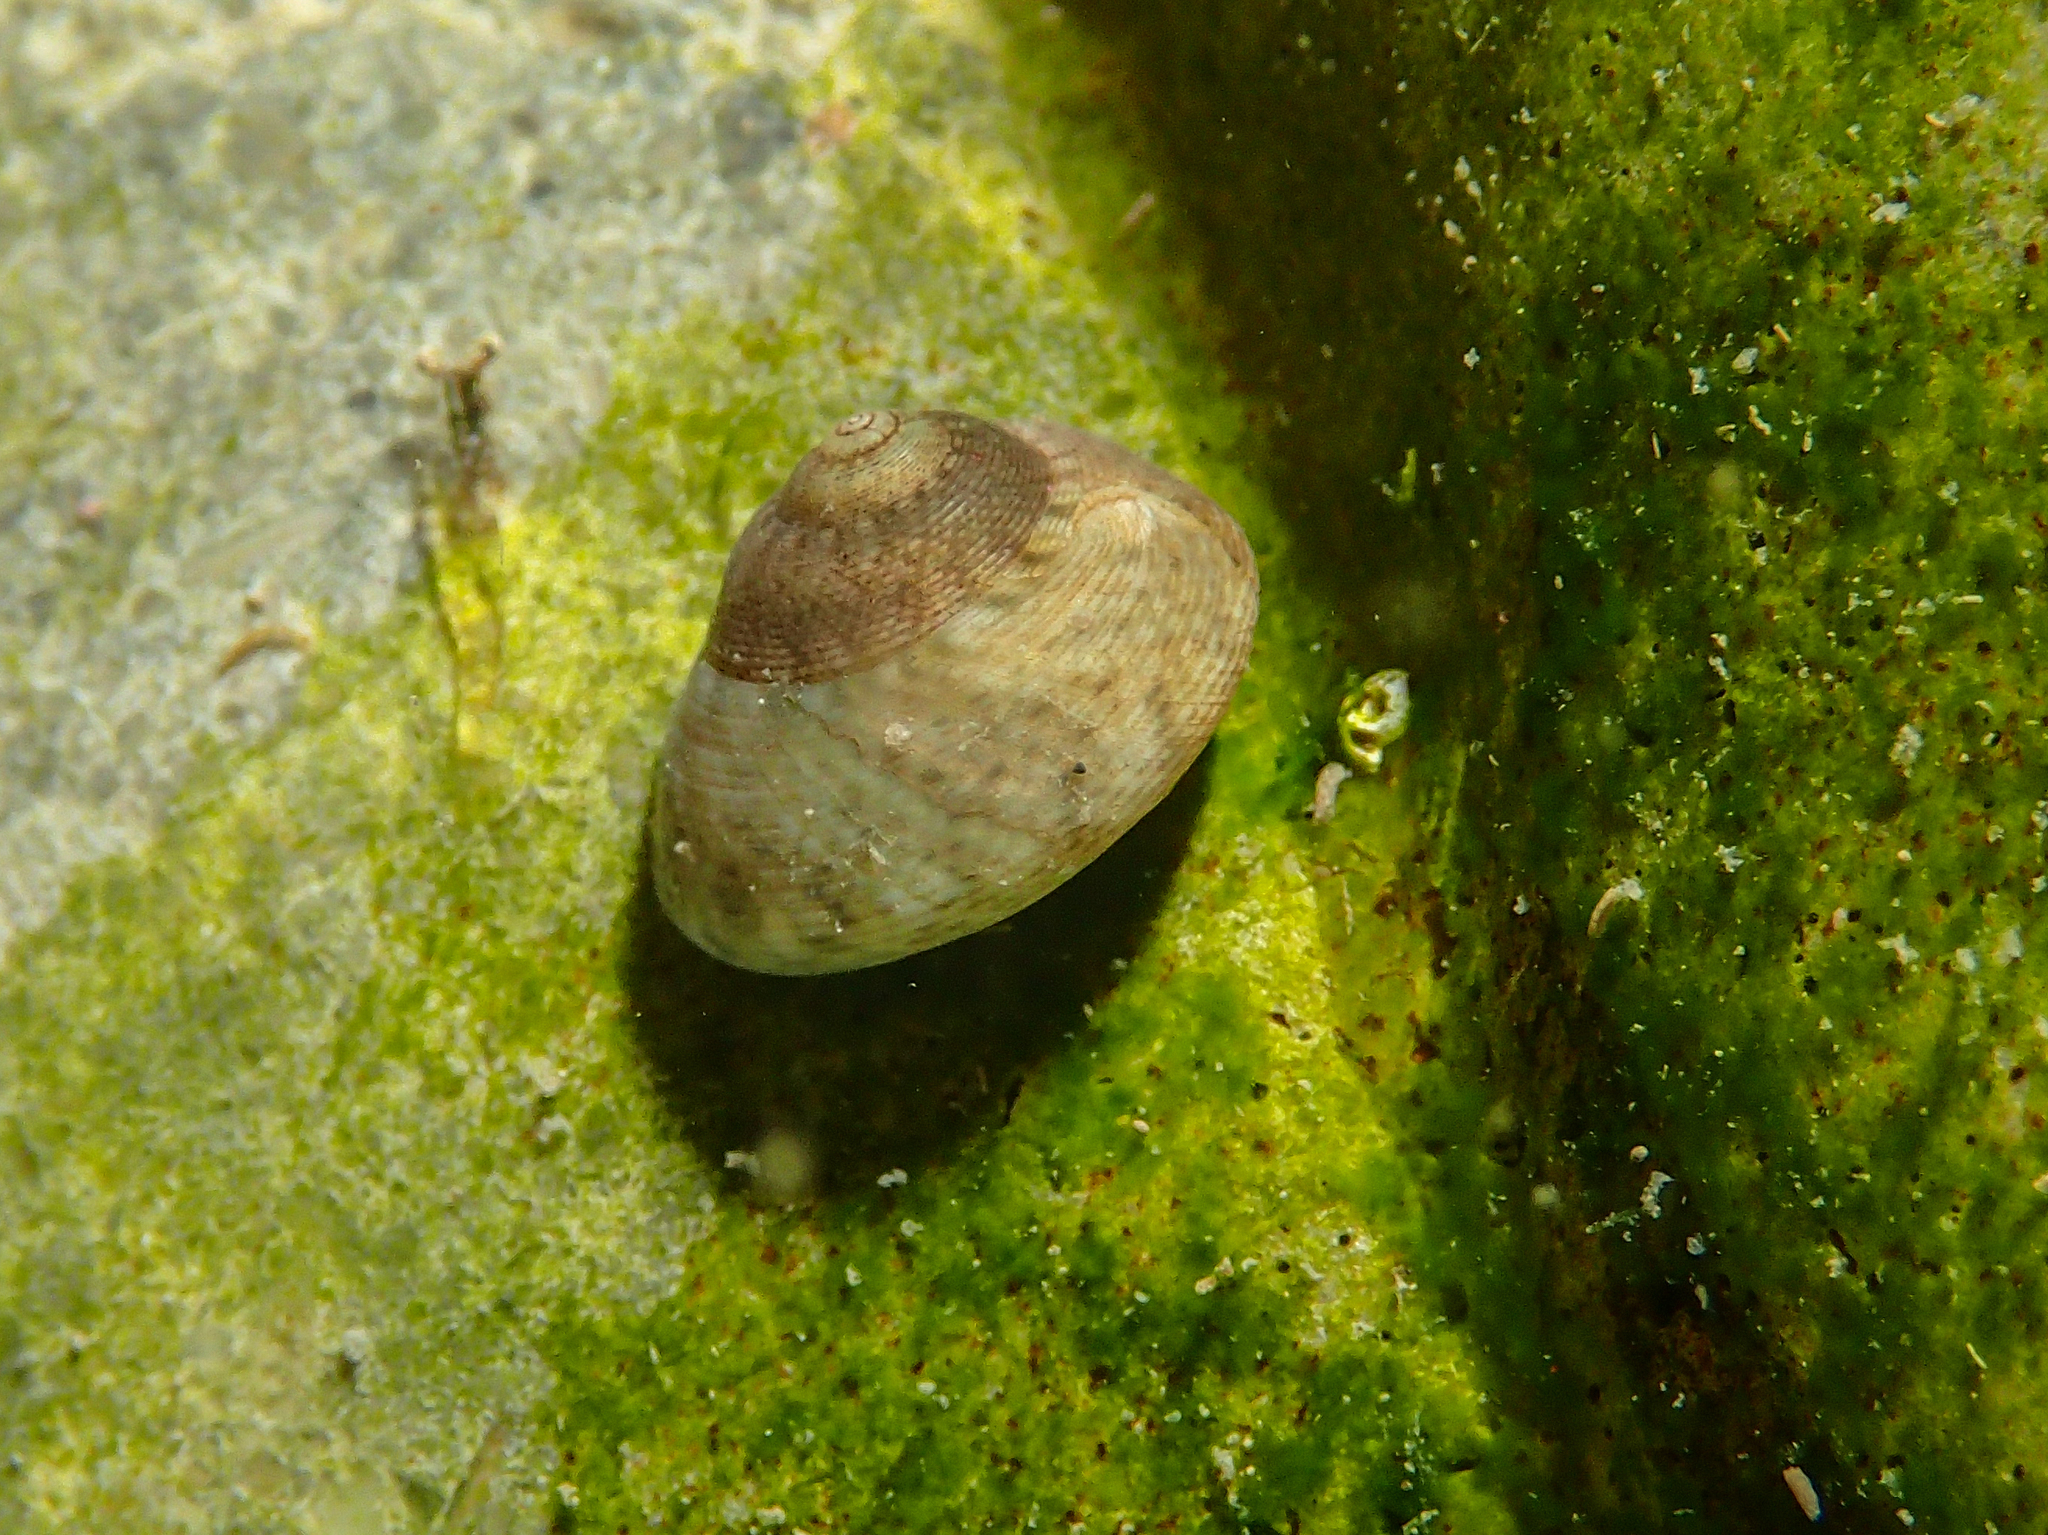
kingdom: Animalia
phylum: Mollusca
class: Gastropoda
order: Trochida
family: Trochidae
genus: Steromphala
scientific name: Steromphala varia
